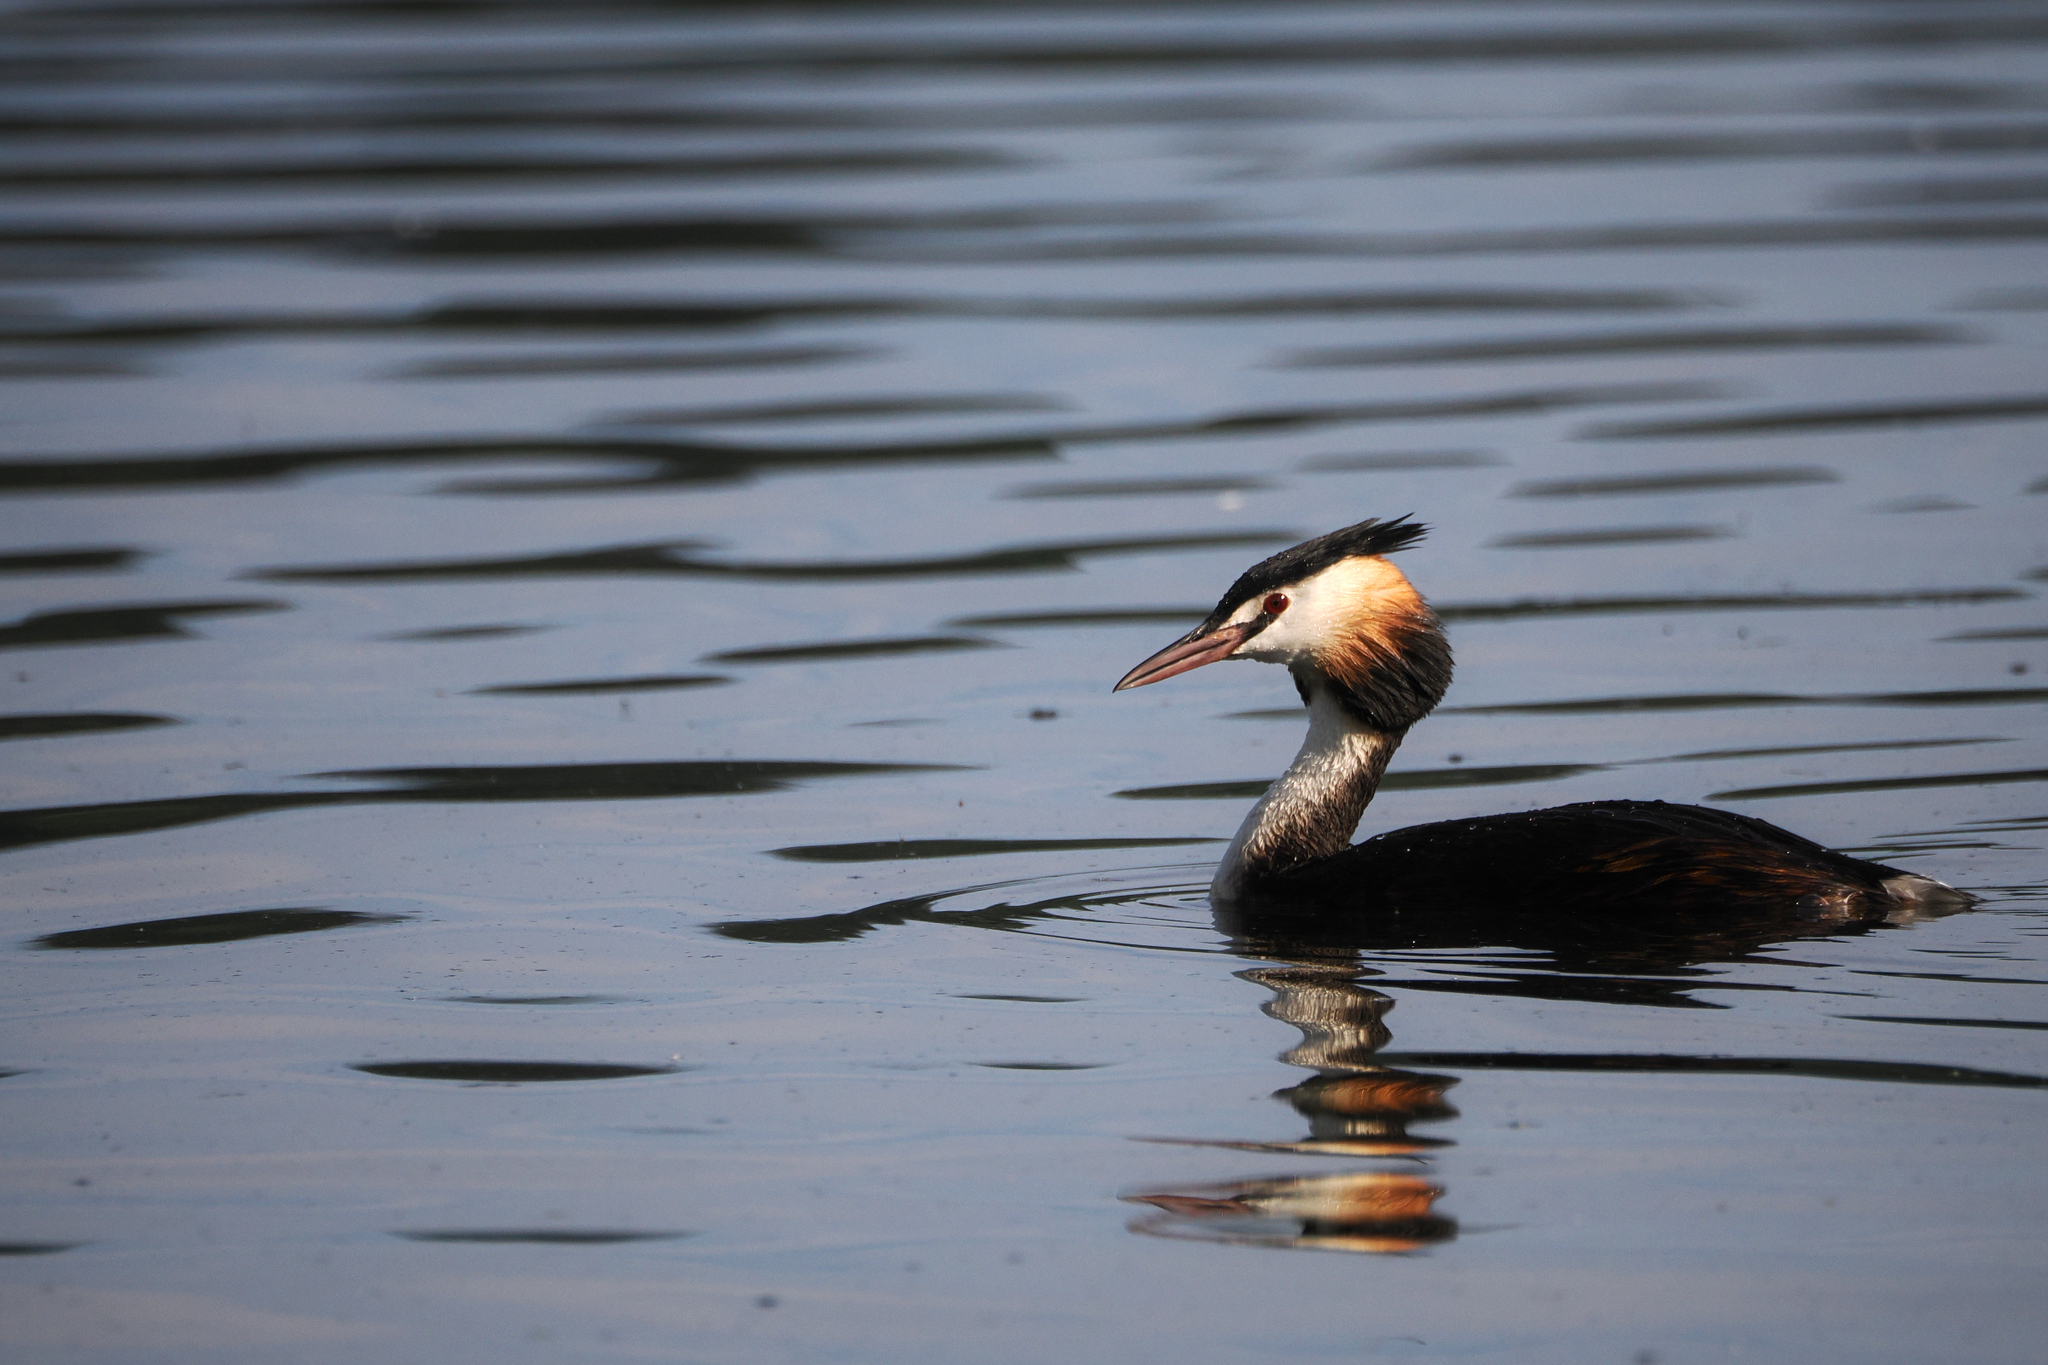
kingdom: Animalia
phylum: Chordata
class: Aves
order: Podicipediformes
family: Podicipedidae
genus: Podiceps
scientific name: Podiceps cristatus
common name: Great crested grebe
